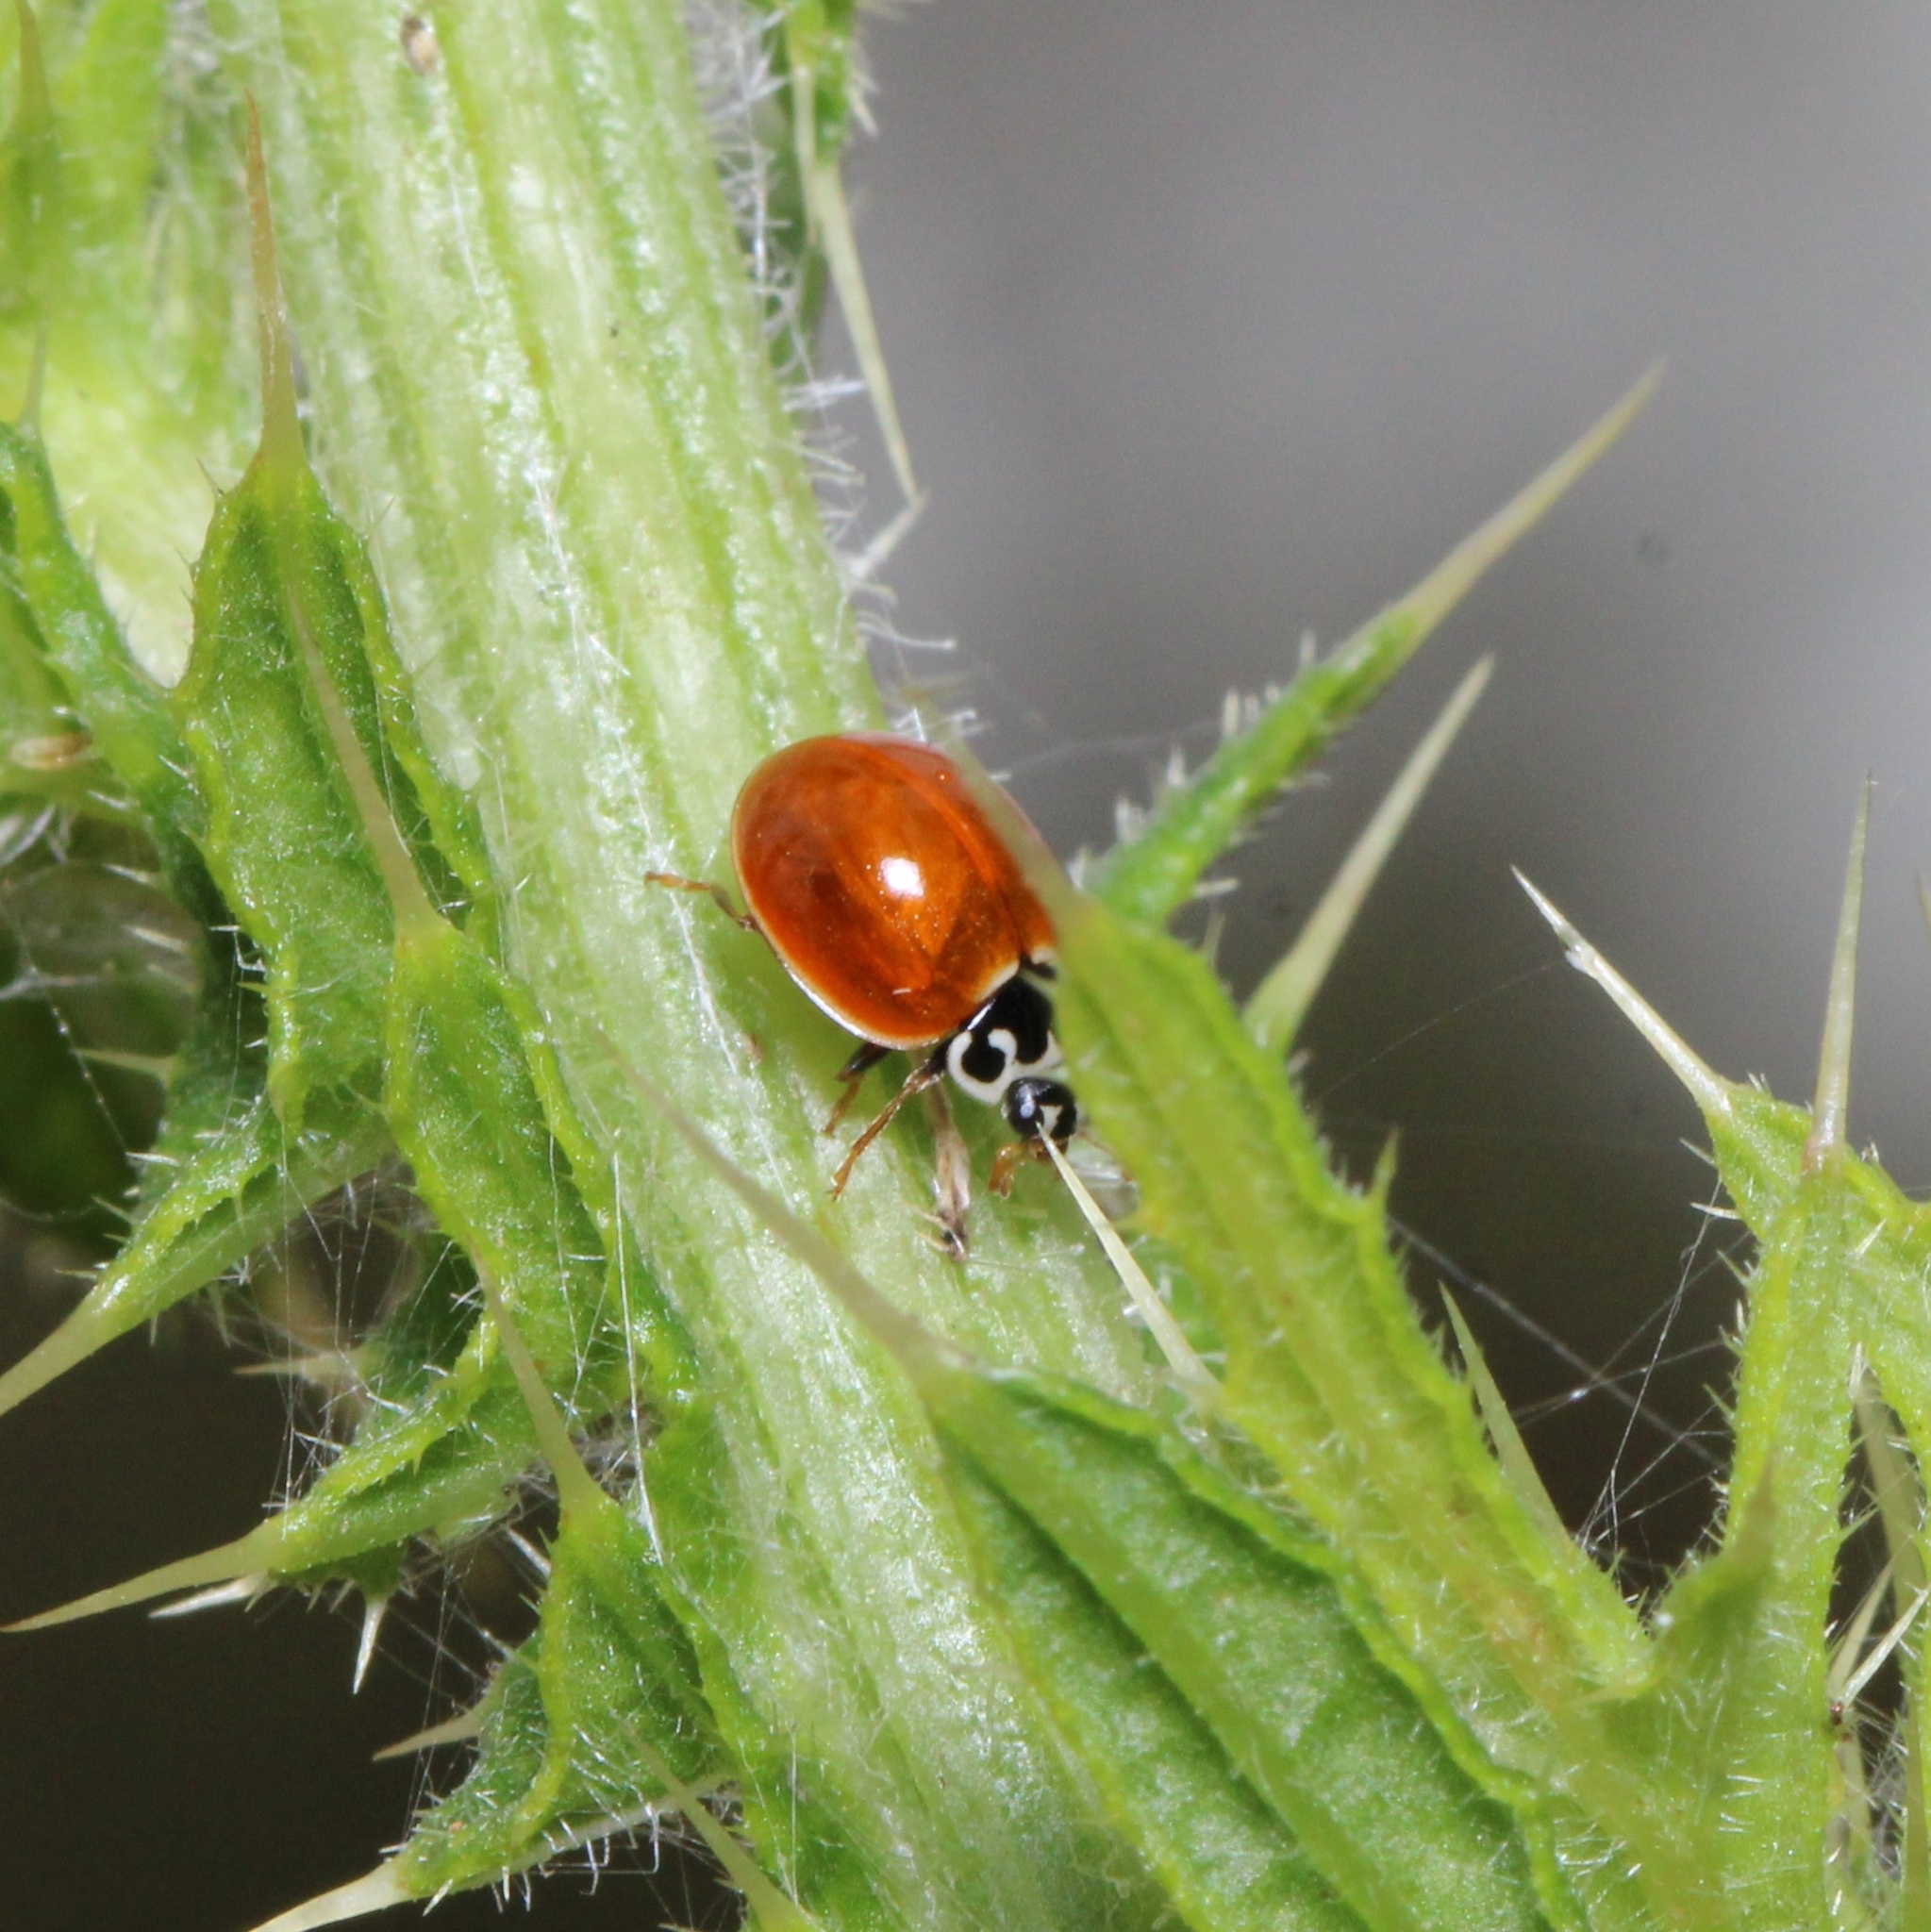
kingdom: Animalia
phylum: Arthropoda
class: Insecta
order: Coleoptera
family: Coccinellidae
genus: Cycloneda
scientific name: Cycloneda munda
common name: Polished lady beetle
